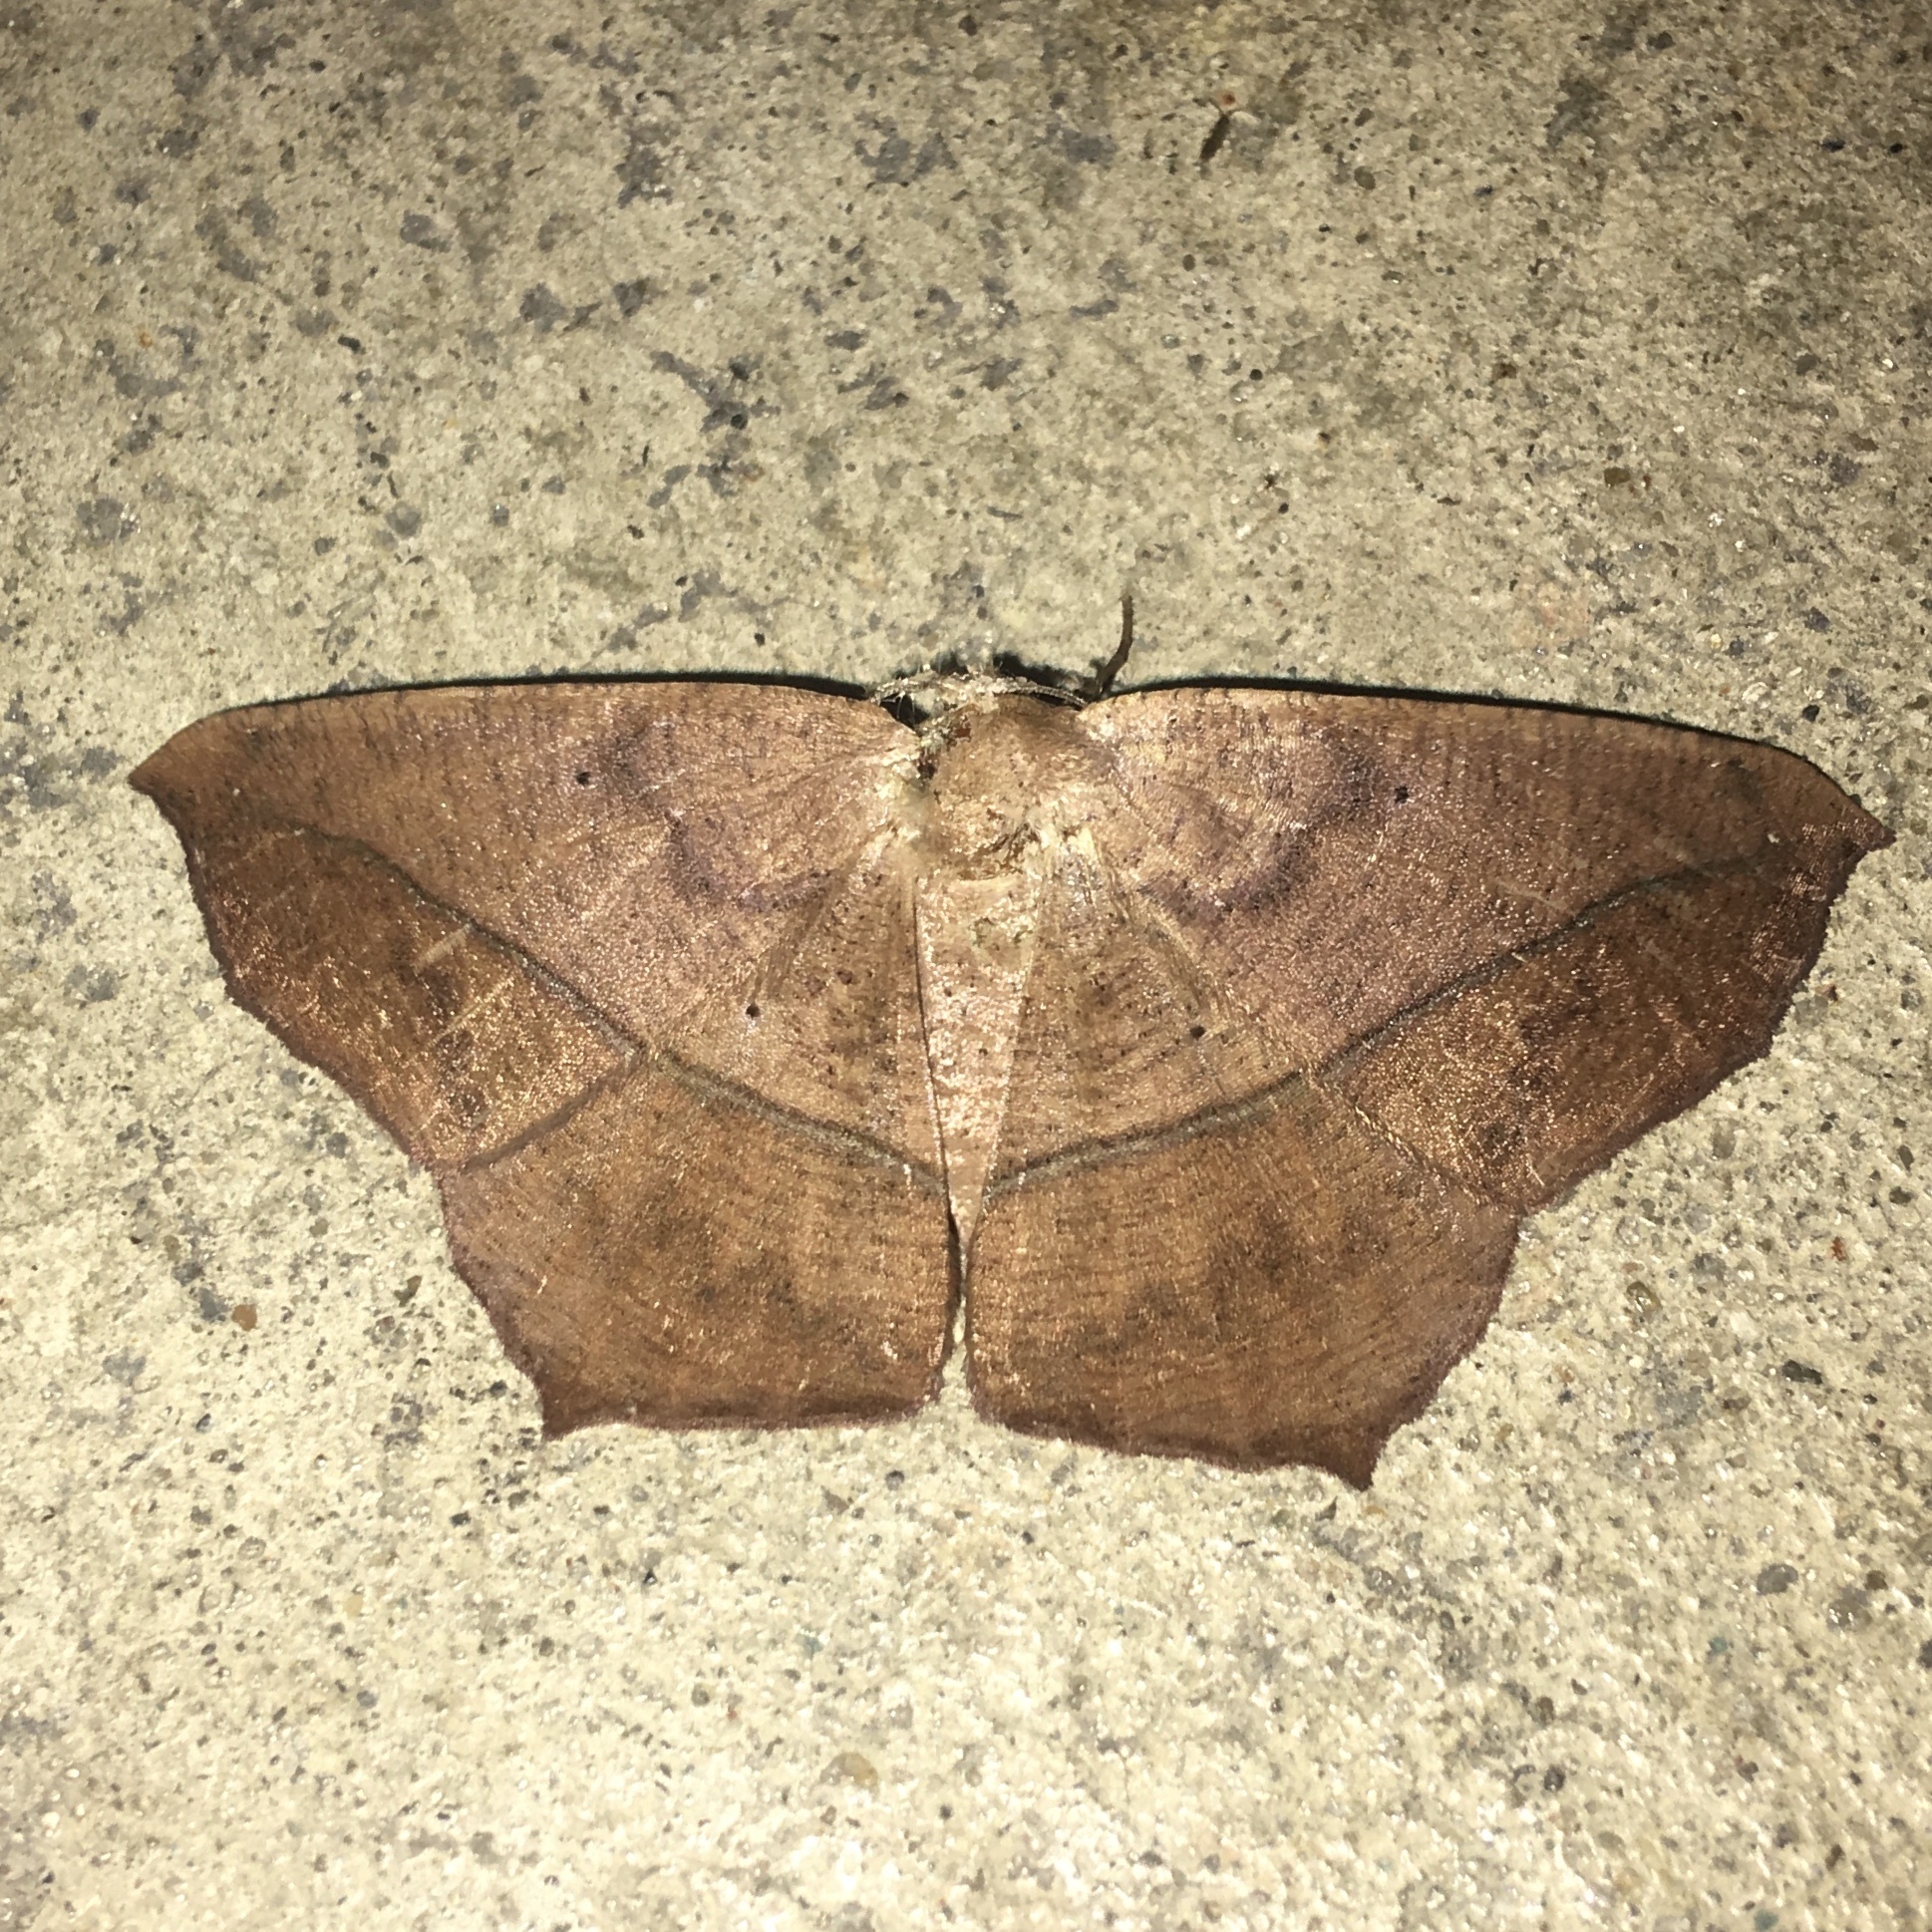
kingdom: Animalia
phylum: Arthropoda
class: Insecta
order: Lepidoptera
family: Geometridae
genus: Prochoerodes
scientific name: Prochoerodes lineola
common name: Large maple spanworm
